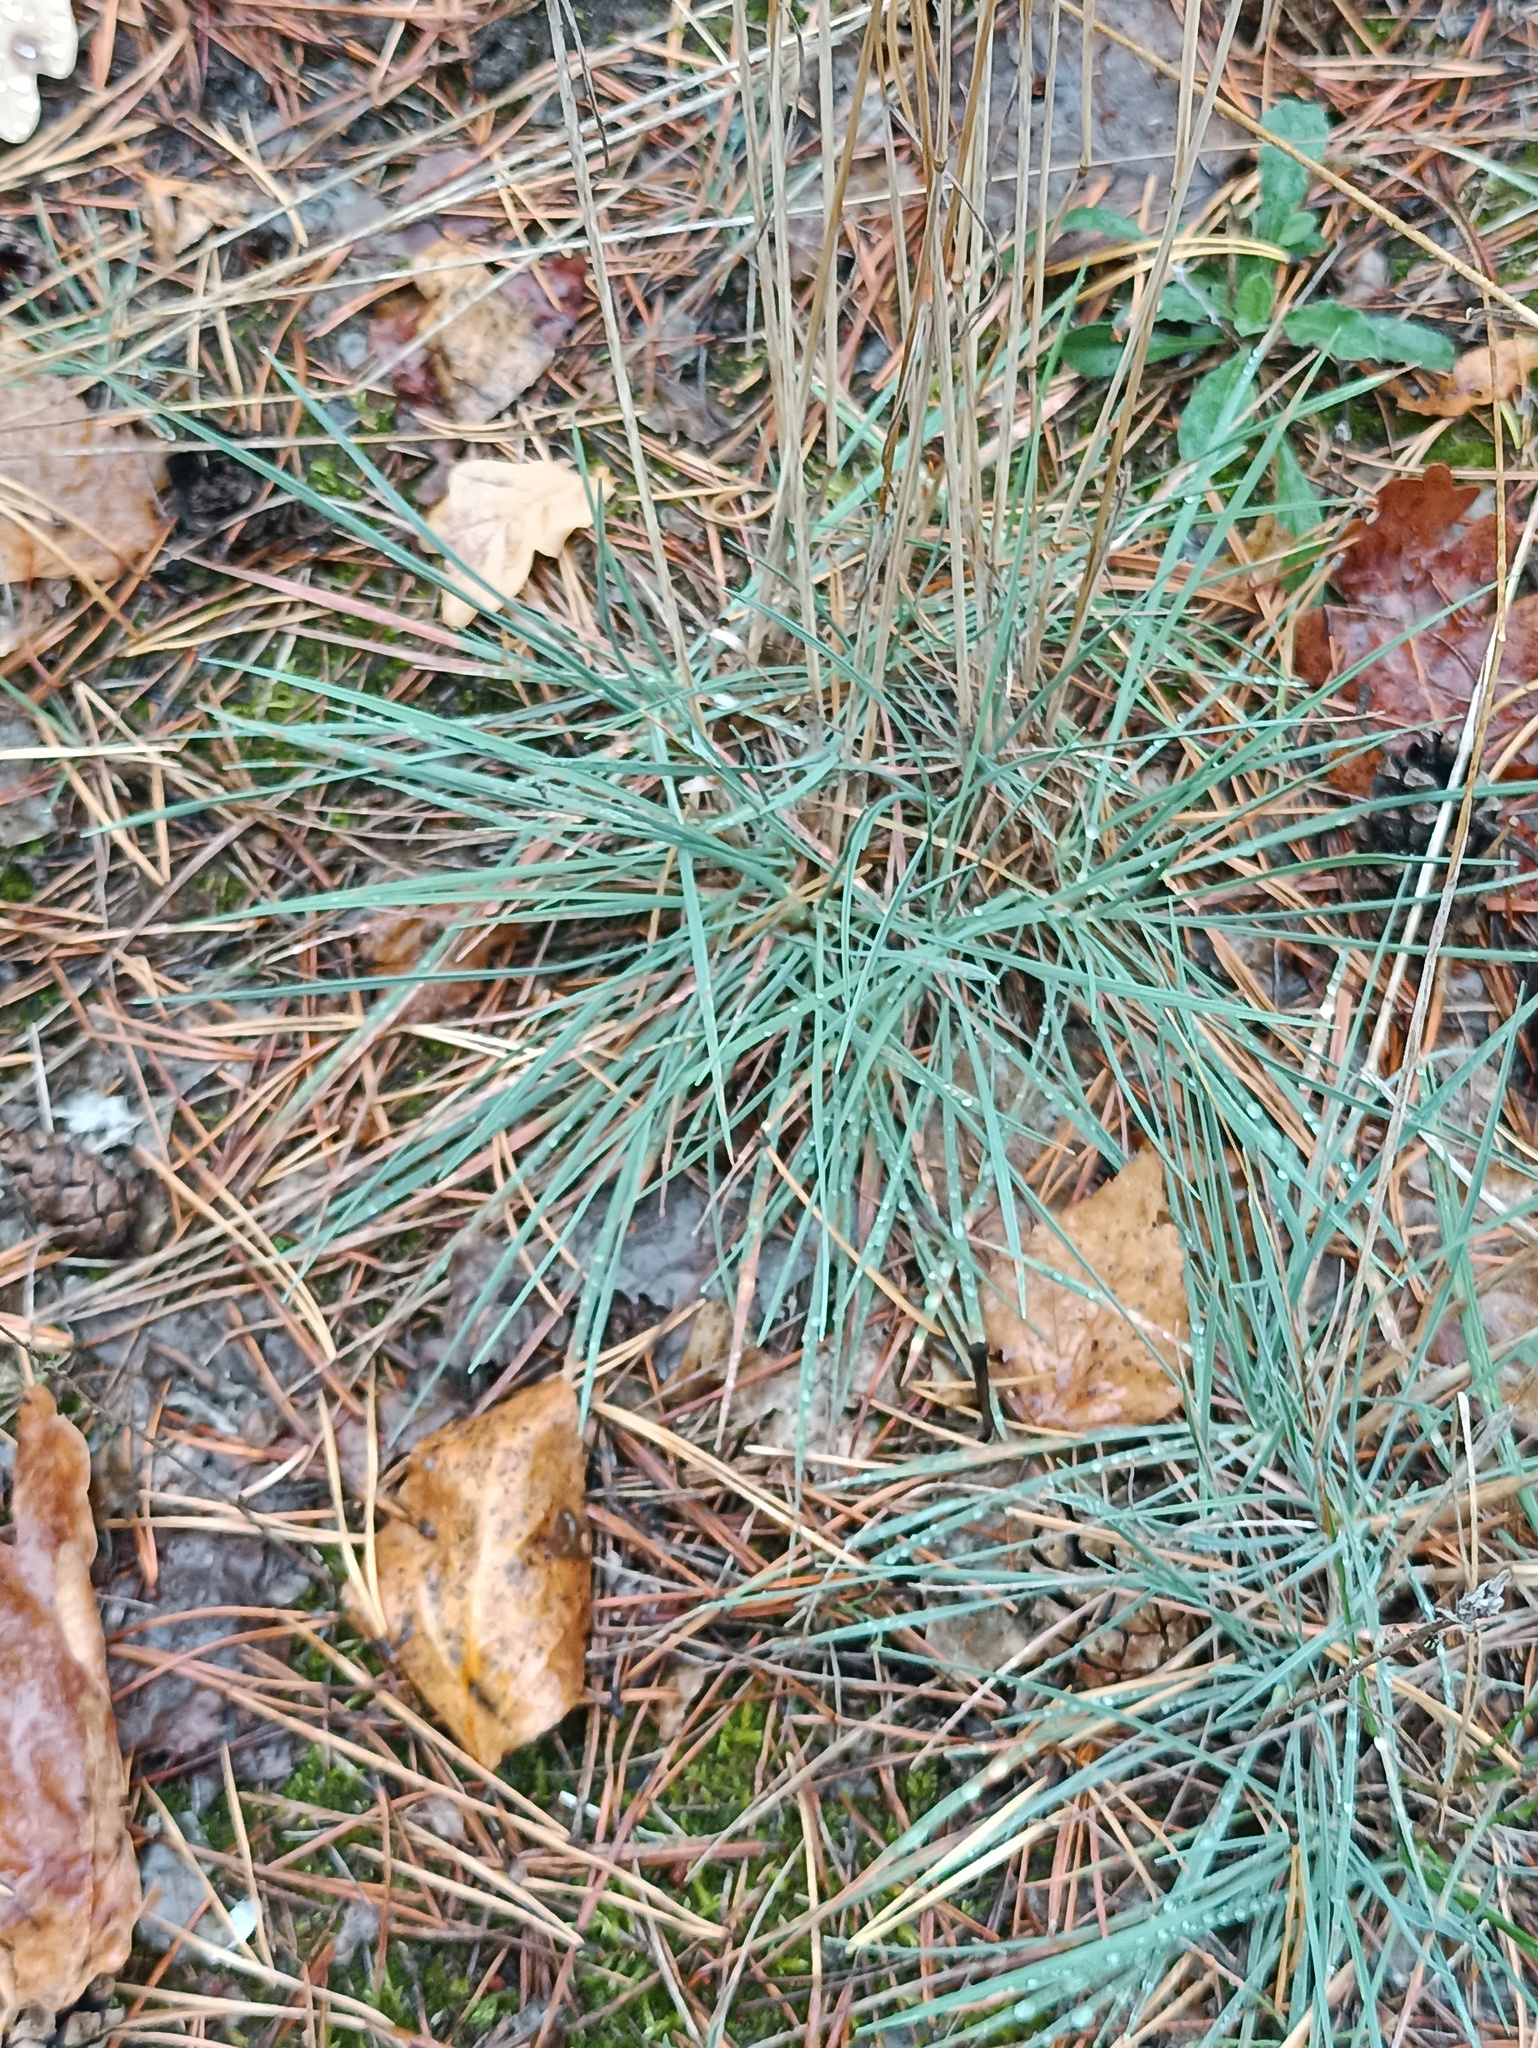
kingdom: Plantae
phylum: Tracheophyta
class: Liliopsida
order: Poales
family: Poaceae
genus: Koeleria
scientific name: Koeleria glauca
